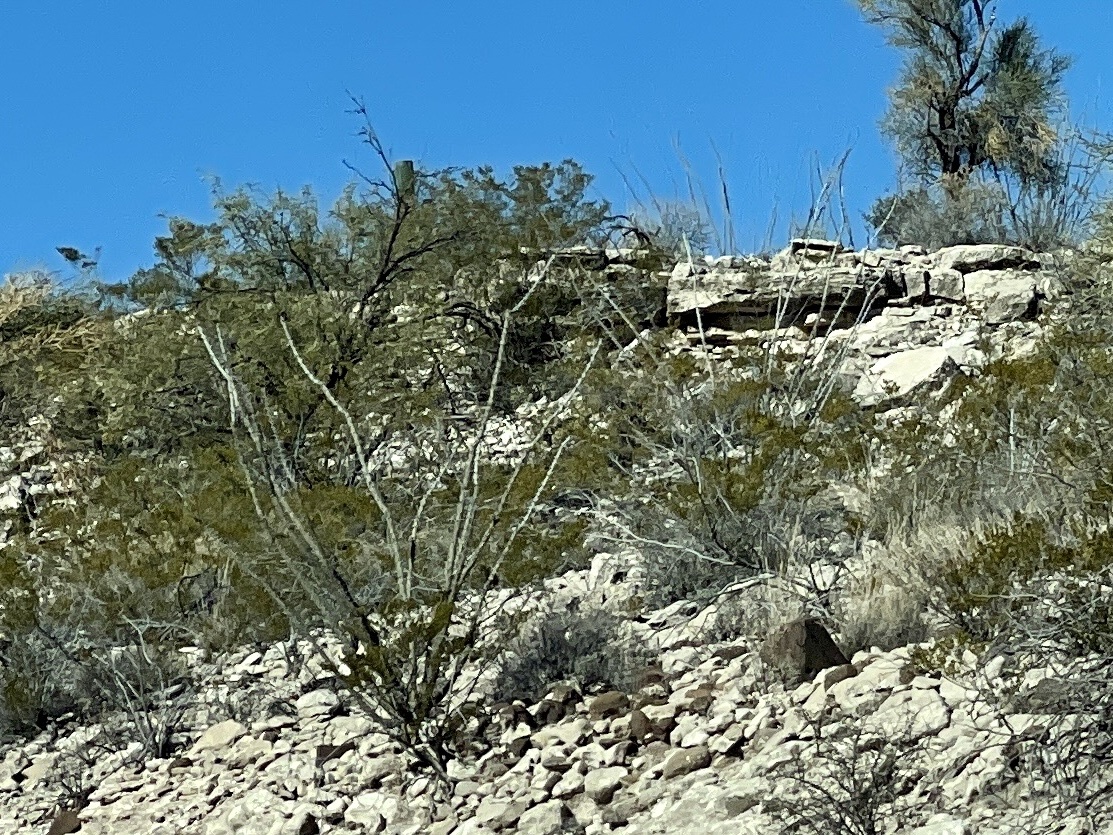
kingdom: Plantae
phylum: Tracheophyta
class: Magnoliopsida
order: Ericales
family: Fouquieriaceae
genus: Fouquieria
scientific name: Fouquieria splendens
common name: Vine-cactus
